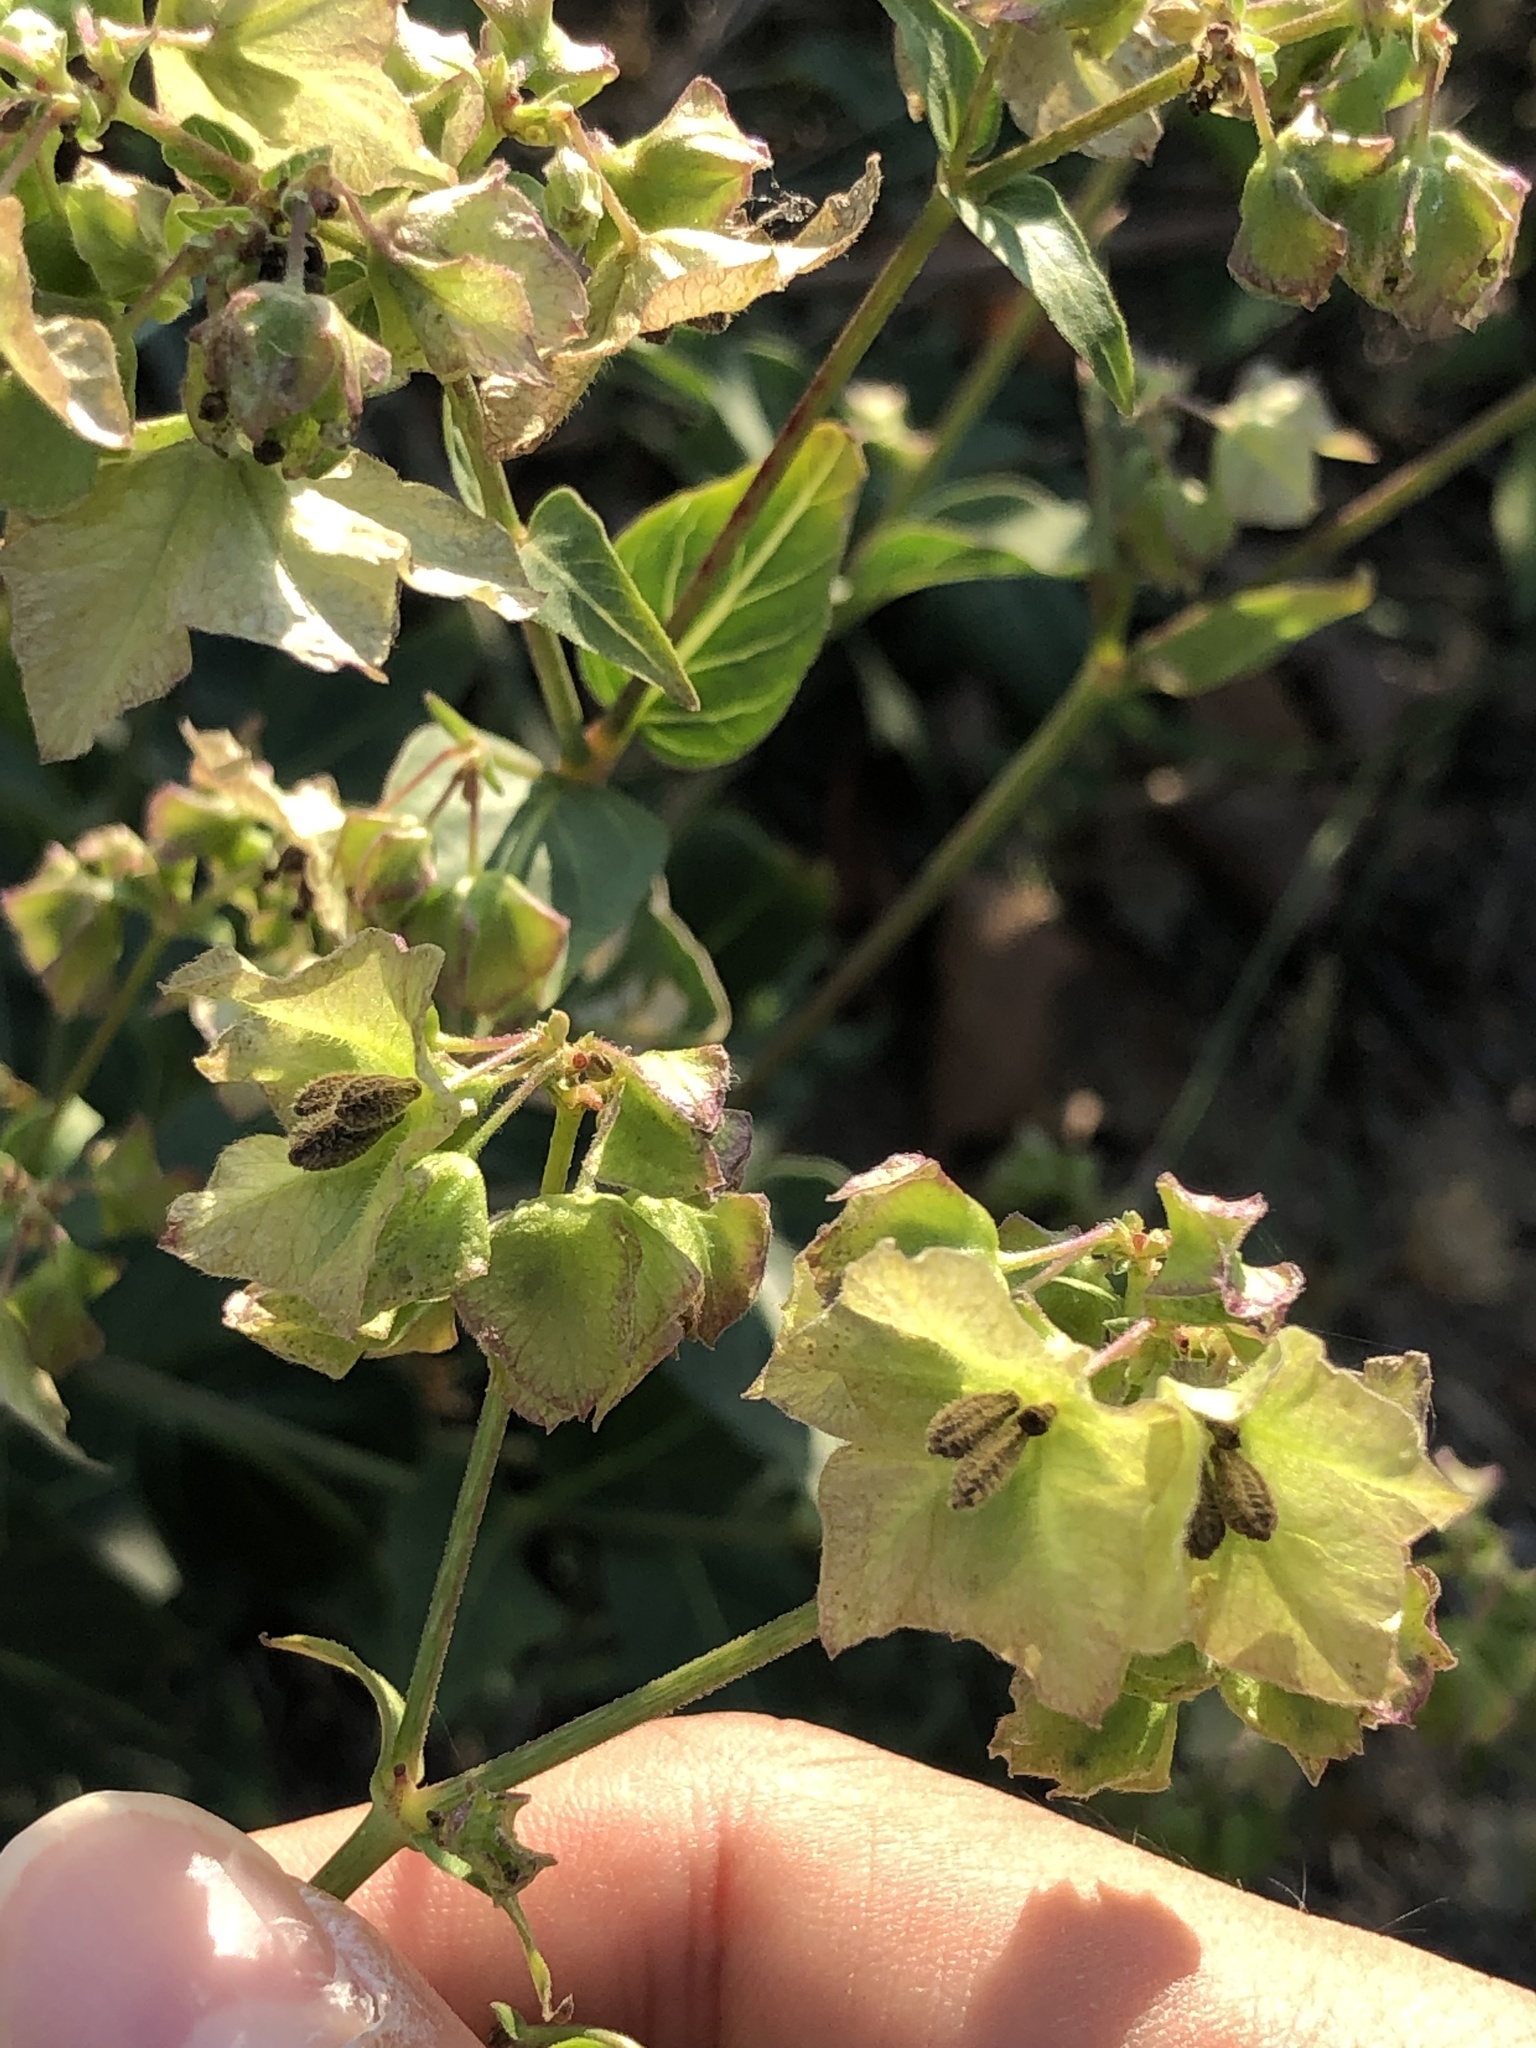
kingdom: Plantae
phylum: Tracheophyta
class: Magnoliopsida
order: Caryophyllales
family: Nyctaginaceae
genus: Mirabilis
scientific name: Mirabilis nyctaginea
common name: Umbrella wort
